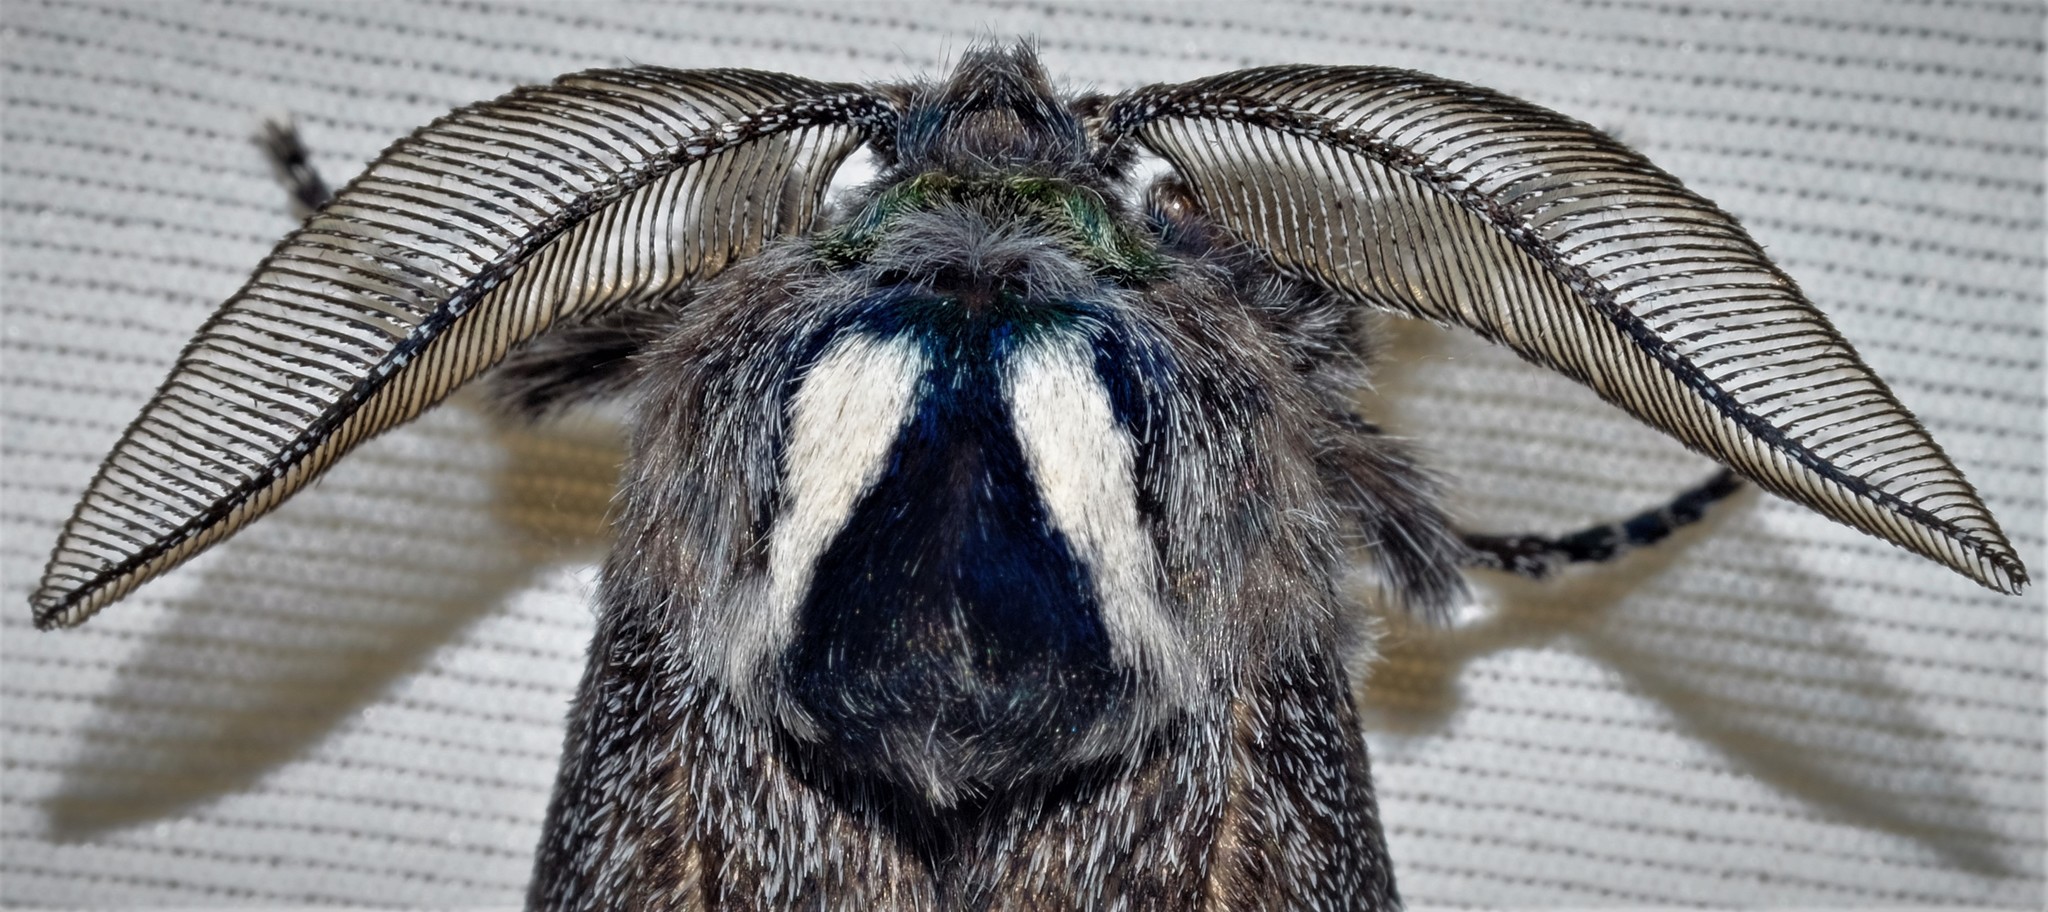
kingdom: Animalia
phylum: Arthropoda
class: Insecta
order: Lepidoptera
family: Cossidae
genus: Ptilomacra
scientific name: Ptilomacra senex
